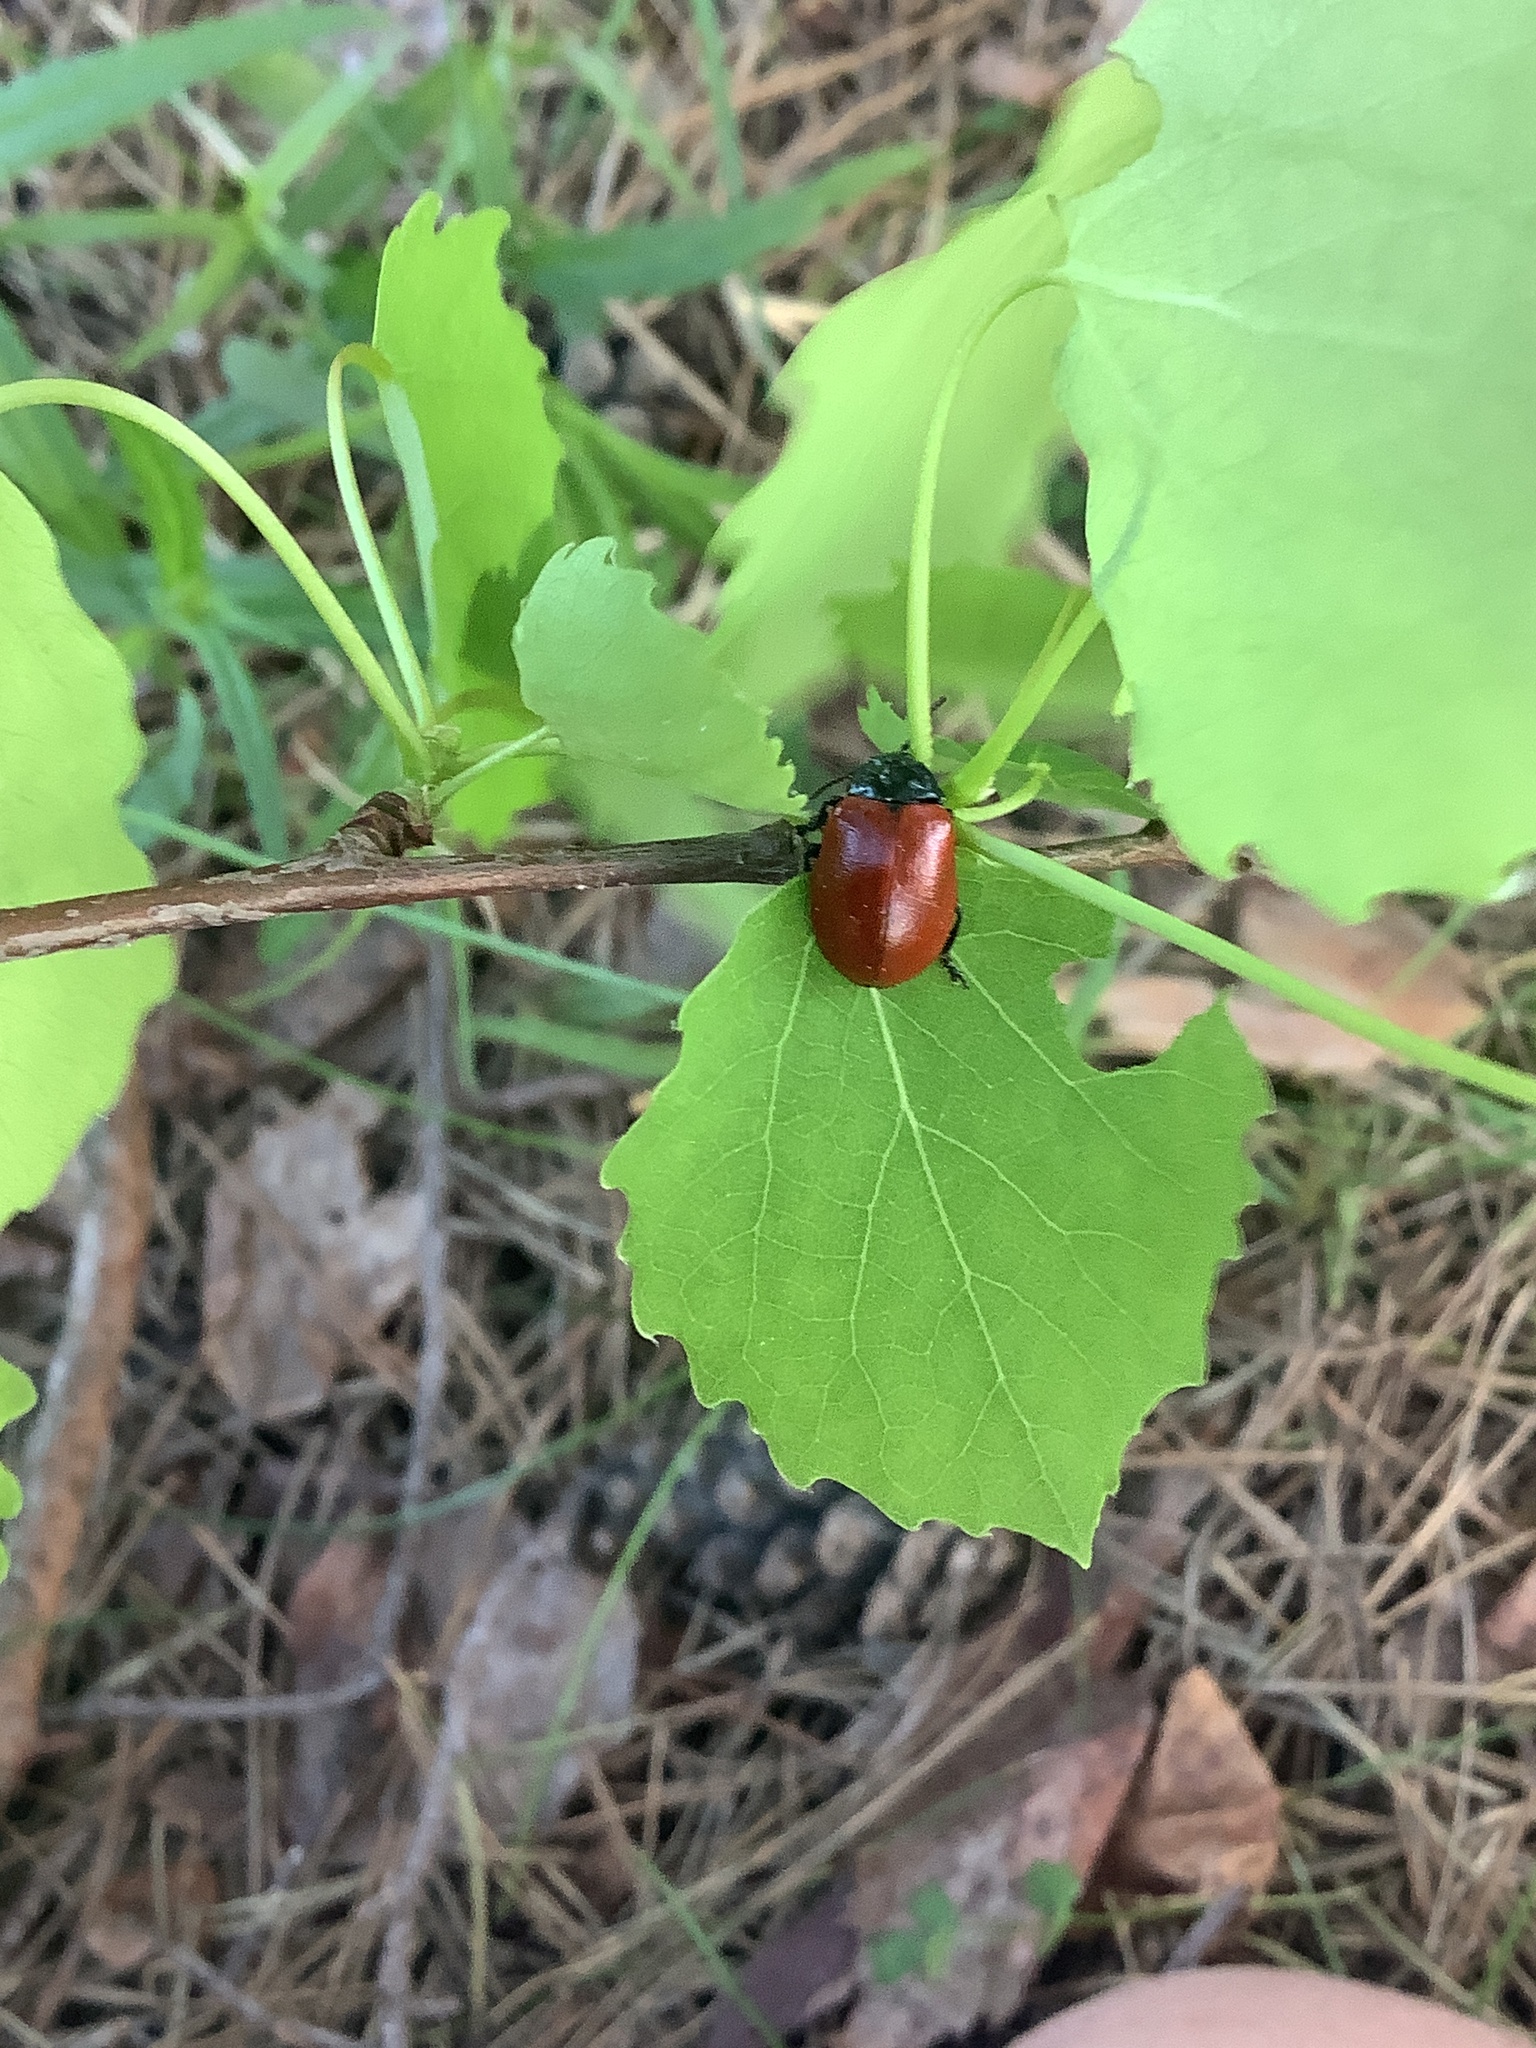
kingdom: Animalia
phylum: Arthropoda
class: Insecta
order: Coleoptera
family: Chrysomelidae
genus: Chrysomela
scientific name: Chrysomela populi
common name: Red poplar leaf beetle
